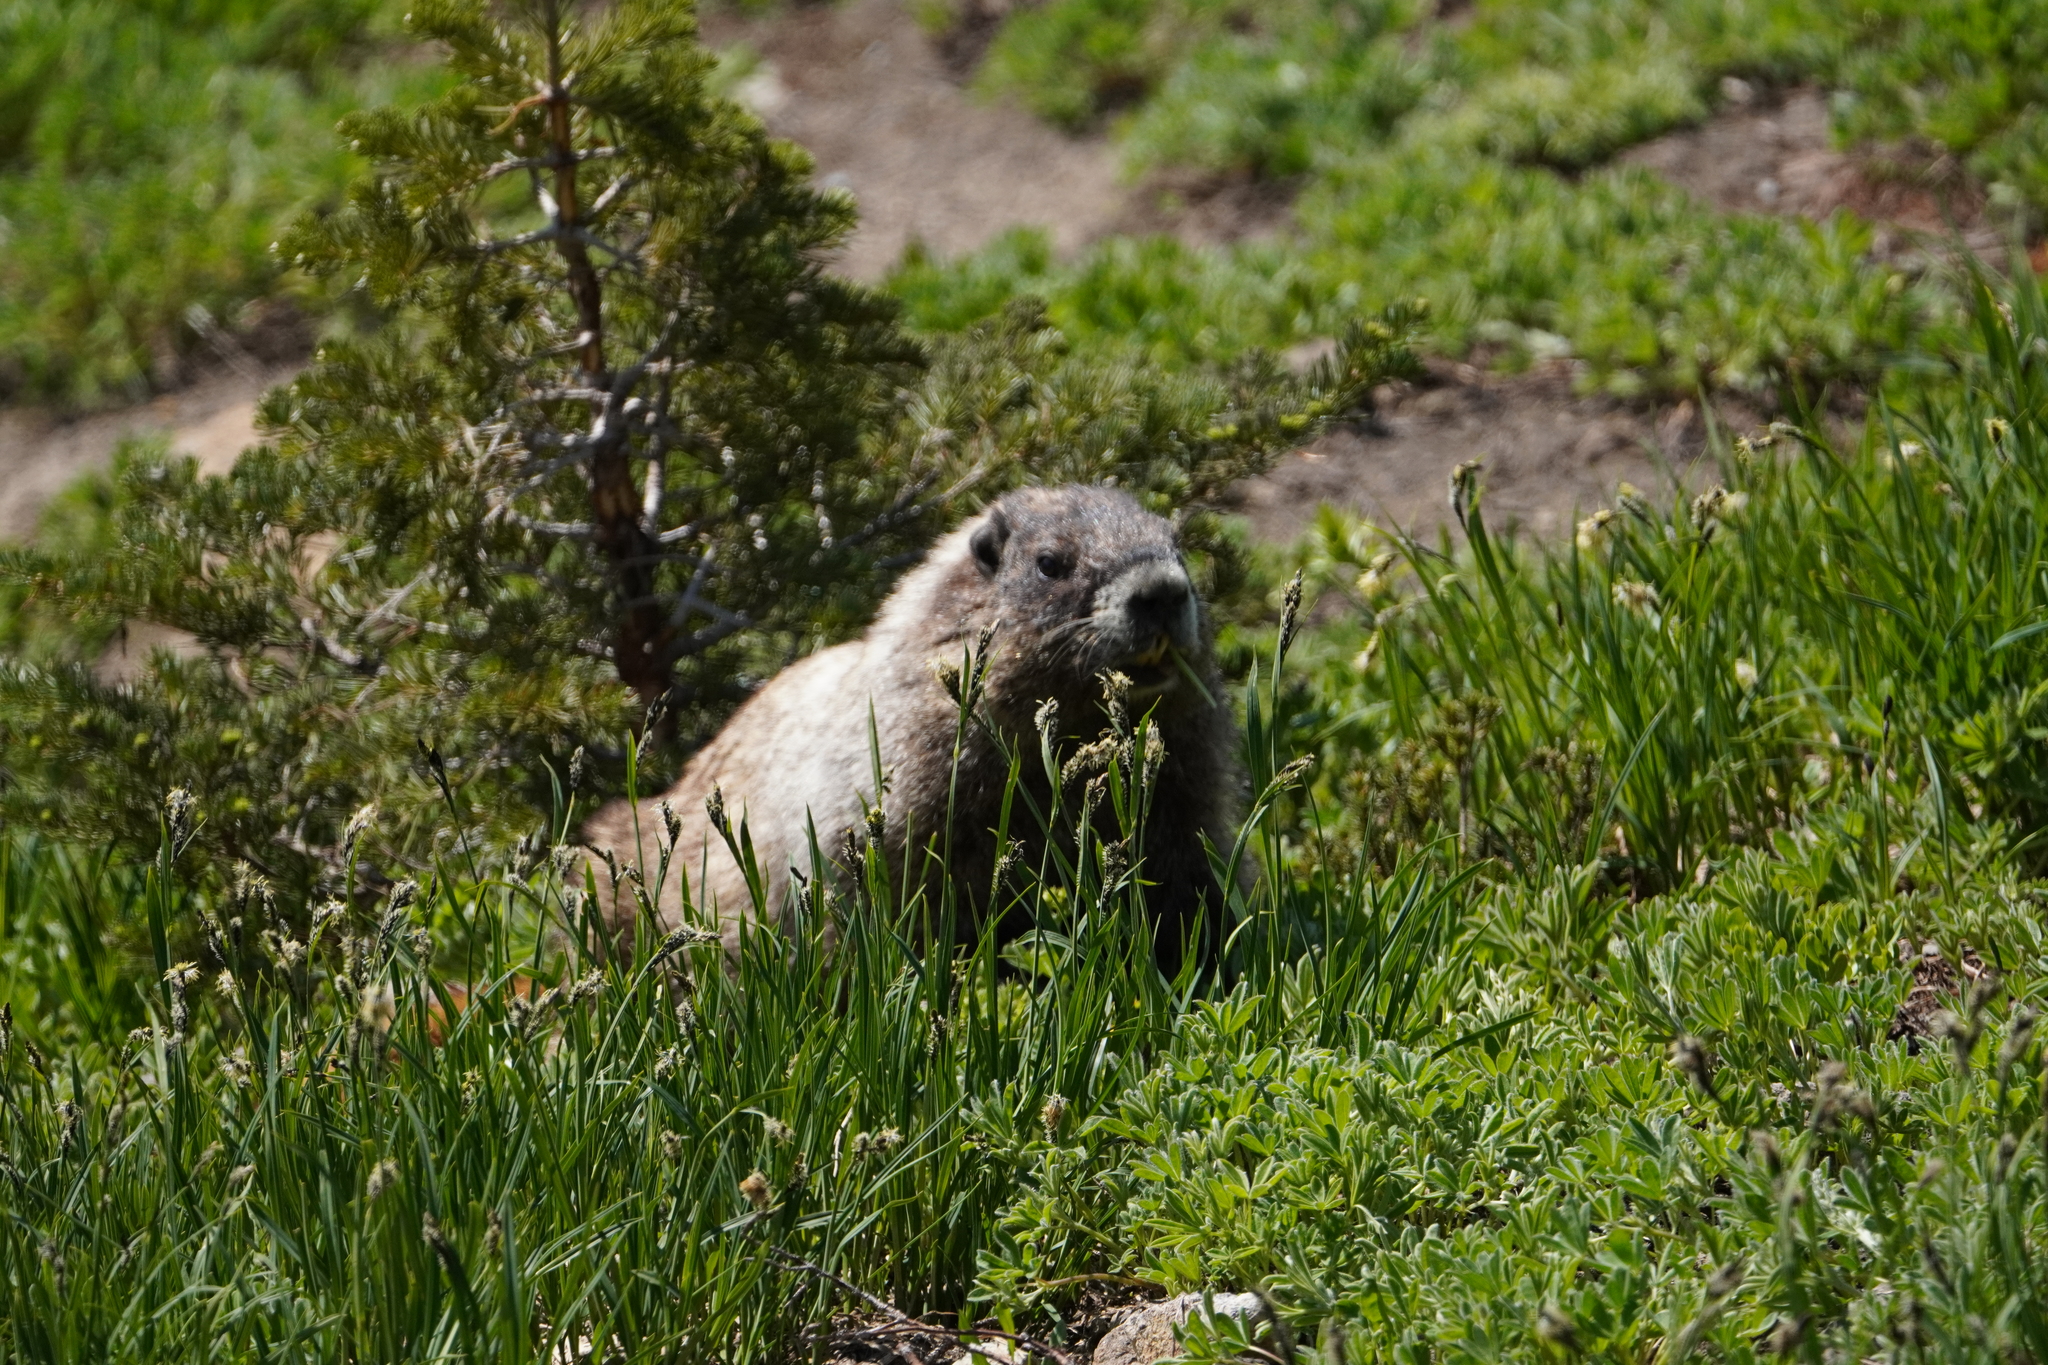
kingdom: Animalia
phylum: Chordata
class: Mammalia
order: Rodentia
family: Sciuridae
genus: Marmota
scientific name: Marmota caligata
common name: Hoary marmot
